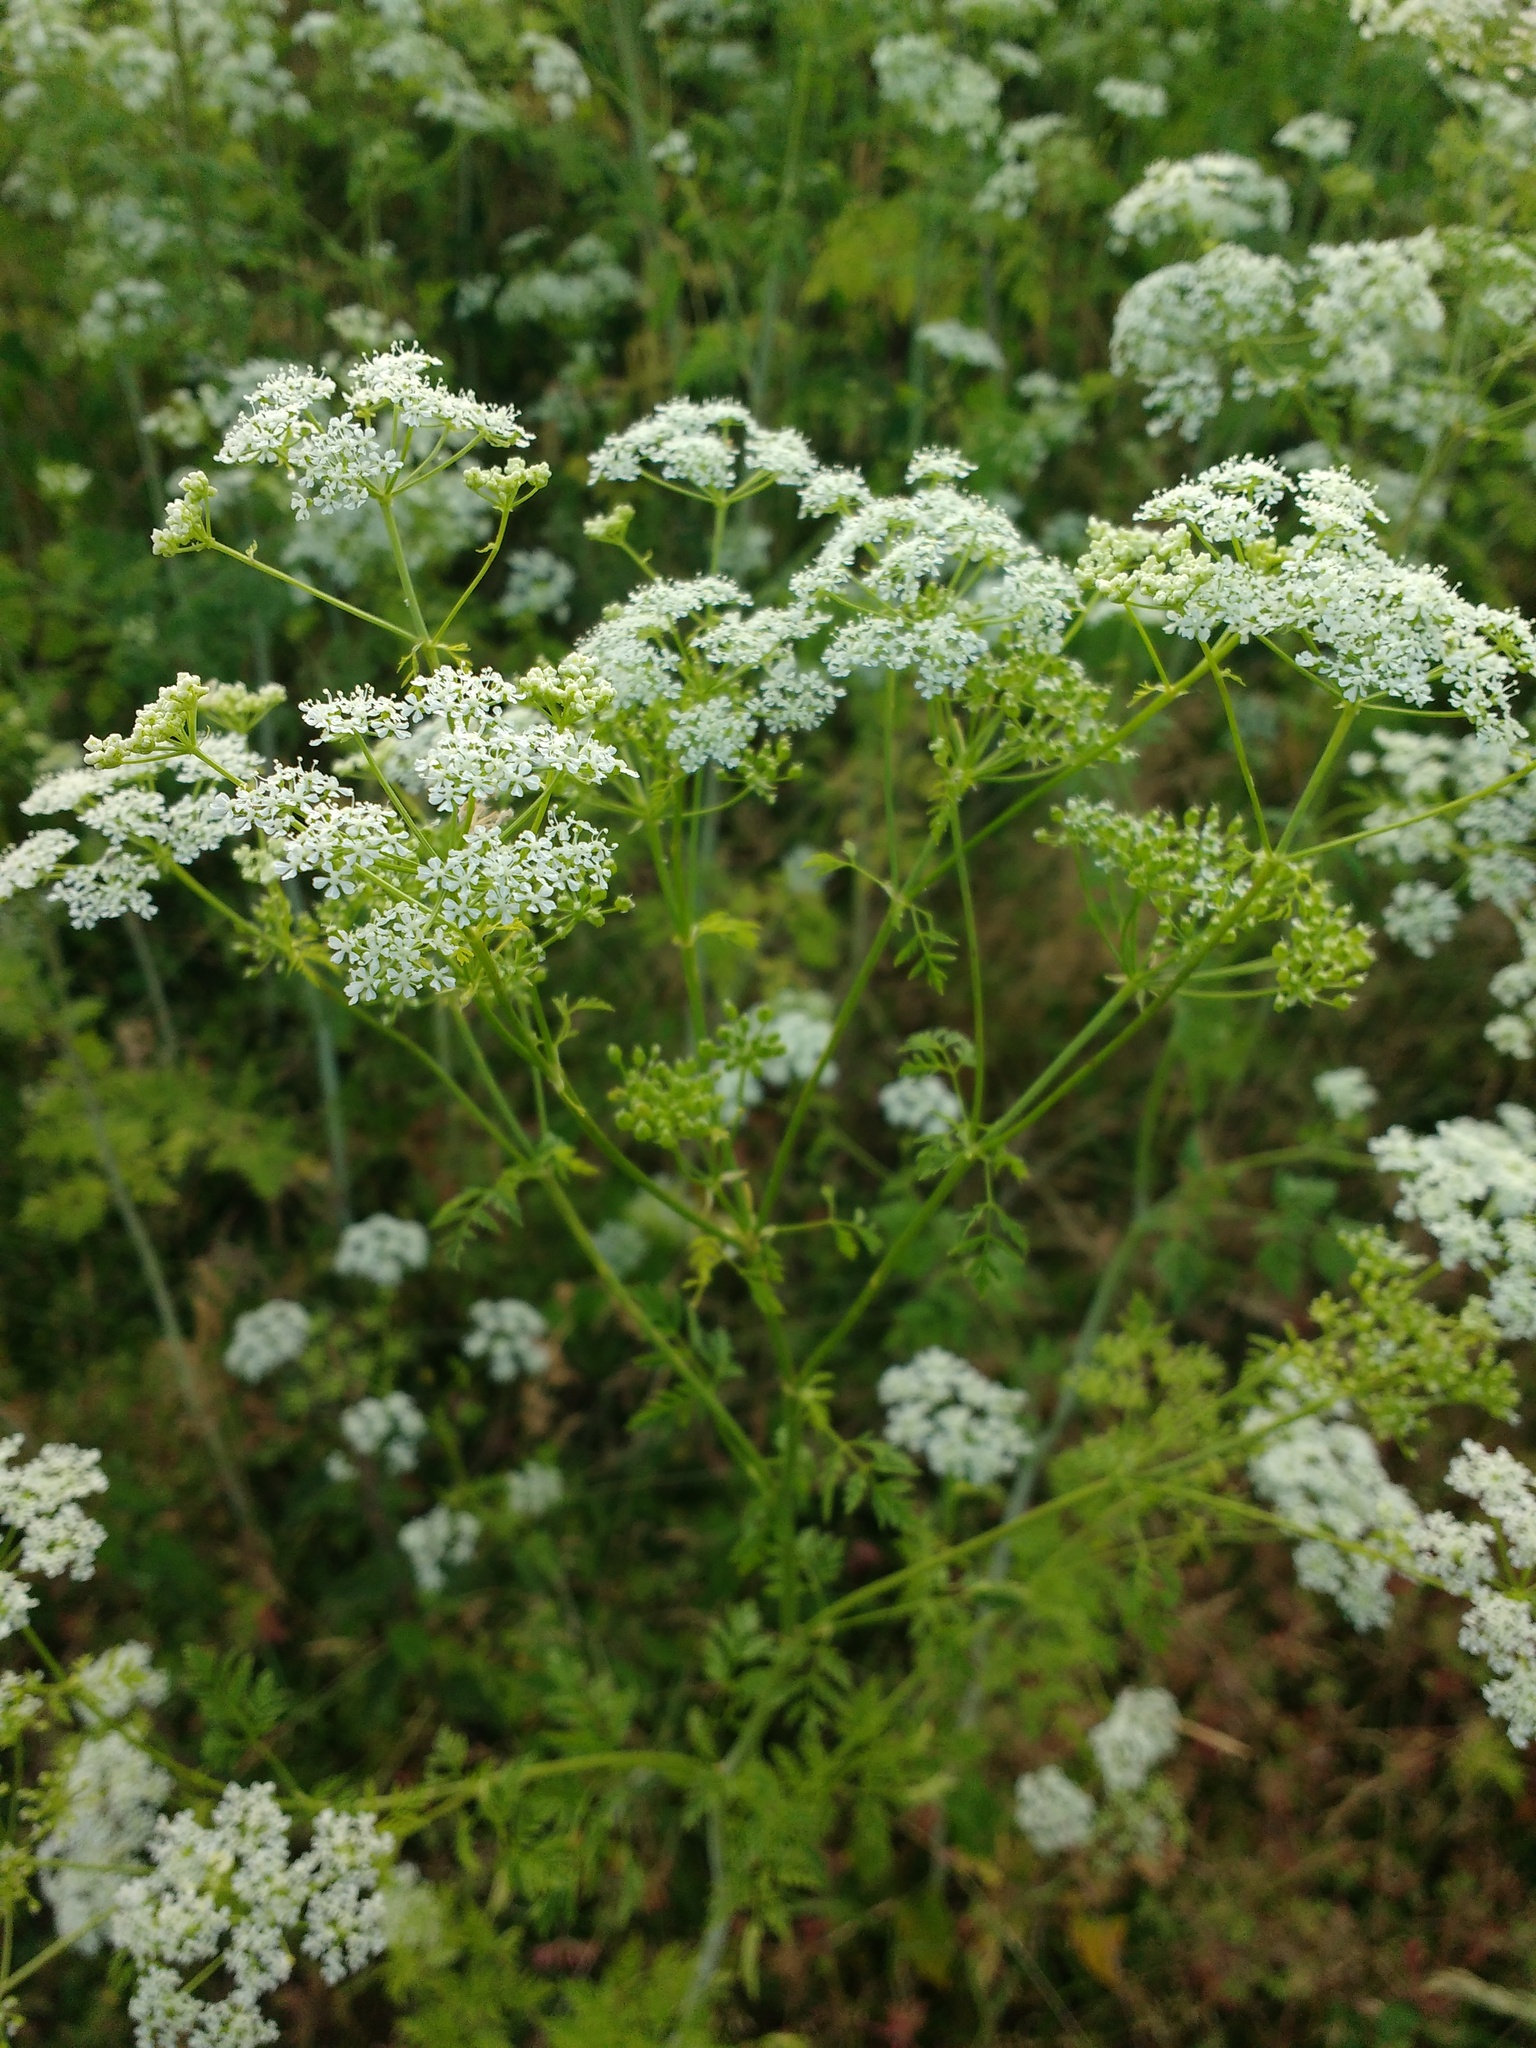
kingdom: Plantae
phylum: Tracheophyta
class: Magnoliopsida
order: Apiales
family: Apiaceae
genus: Conium
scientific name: Conium maculatum
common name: Hemlock
